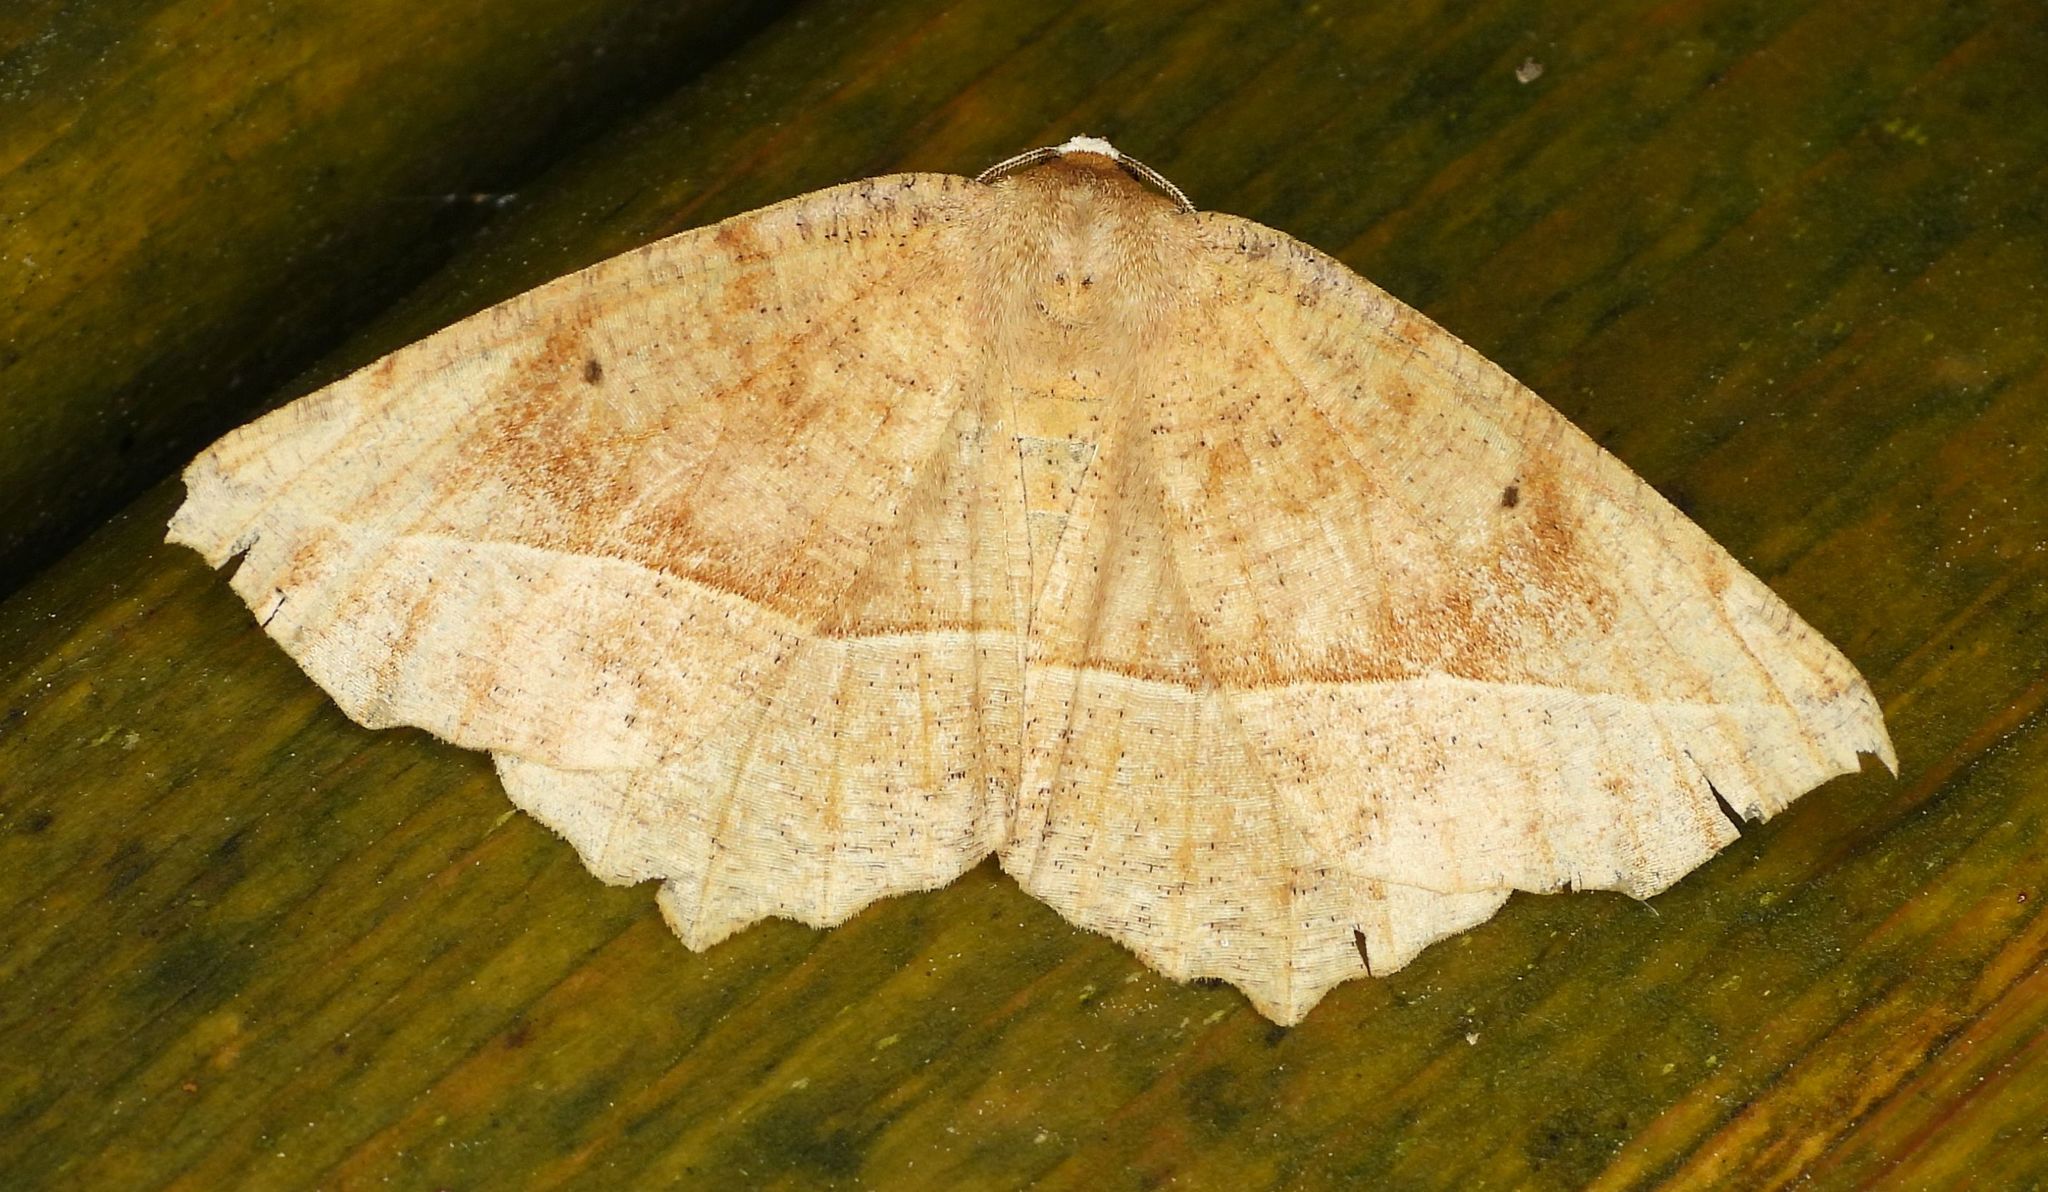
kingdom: Animalia
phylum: Arthropoda
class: Insecta
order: Lepidoptera
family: Geometridae
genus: Eutrapela
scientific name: Eutrapela clemataria
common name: Curved-toothed geometer
